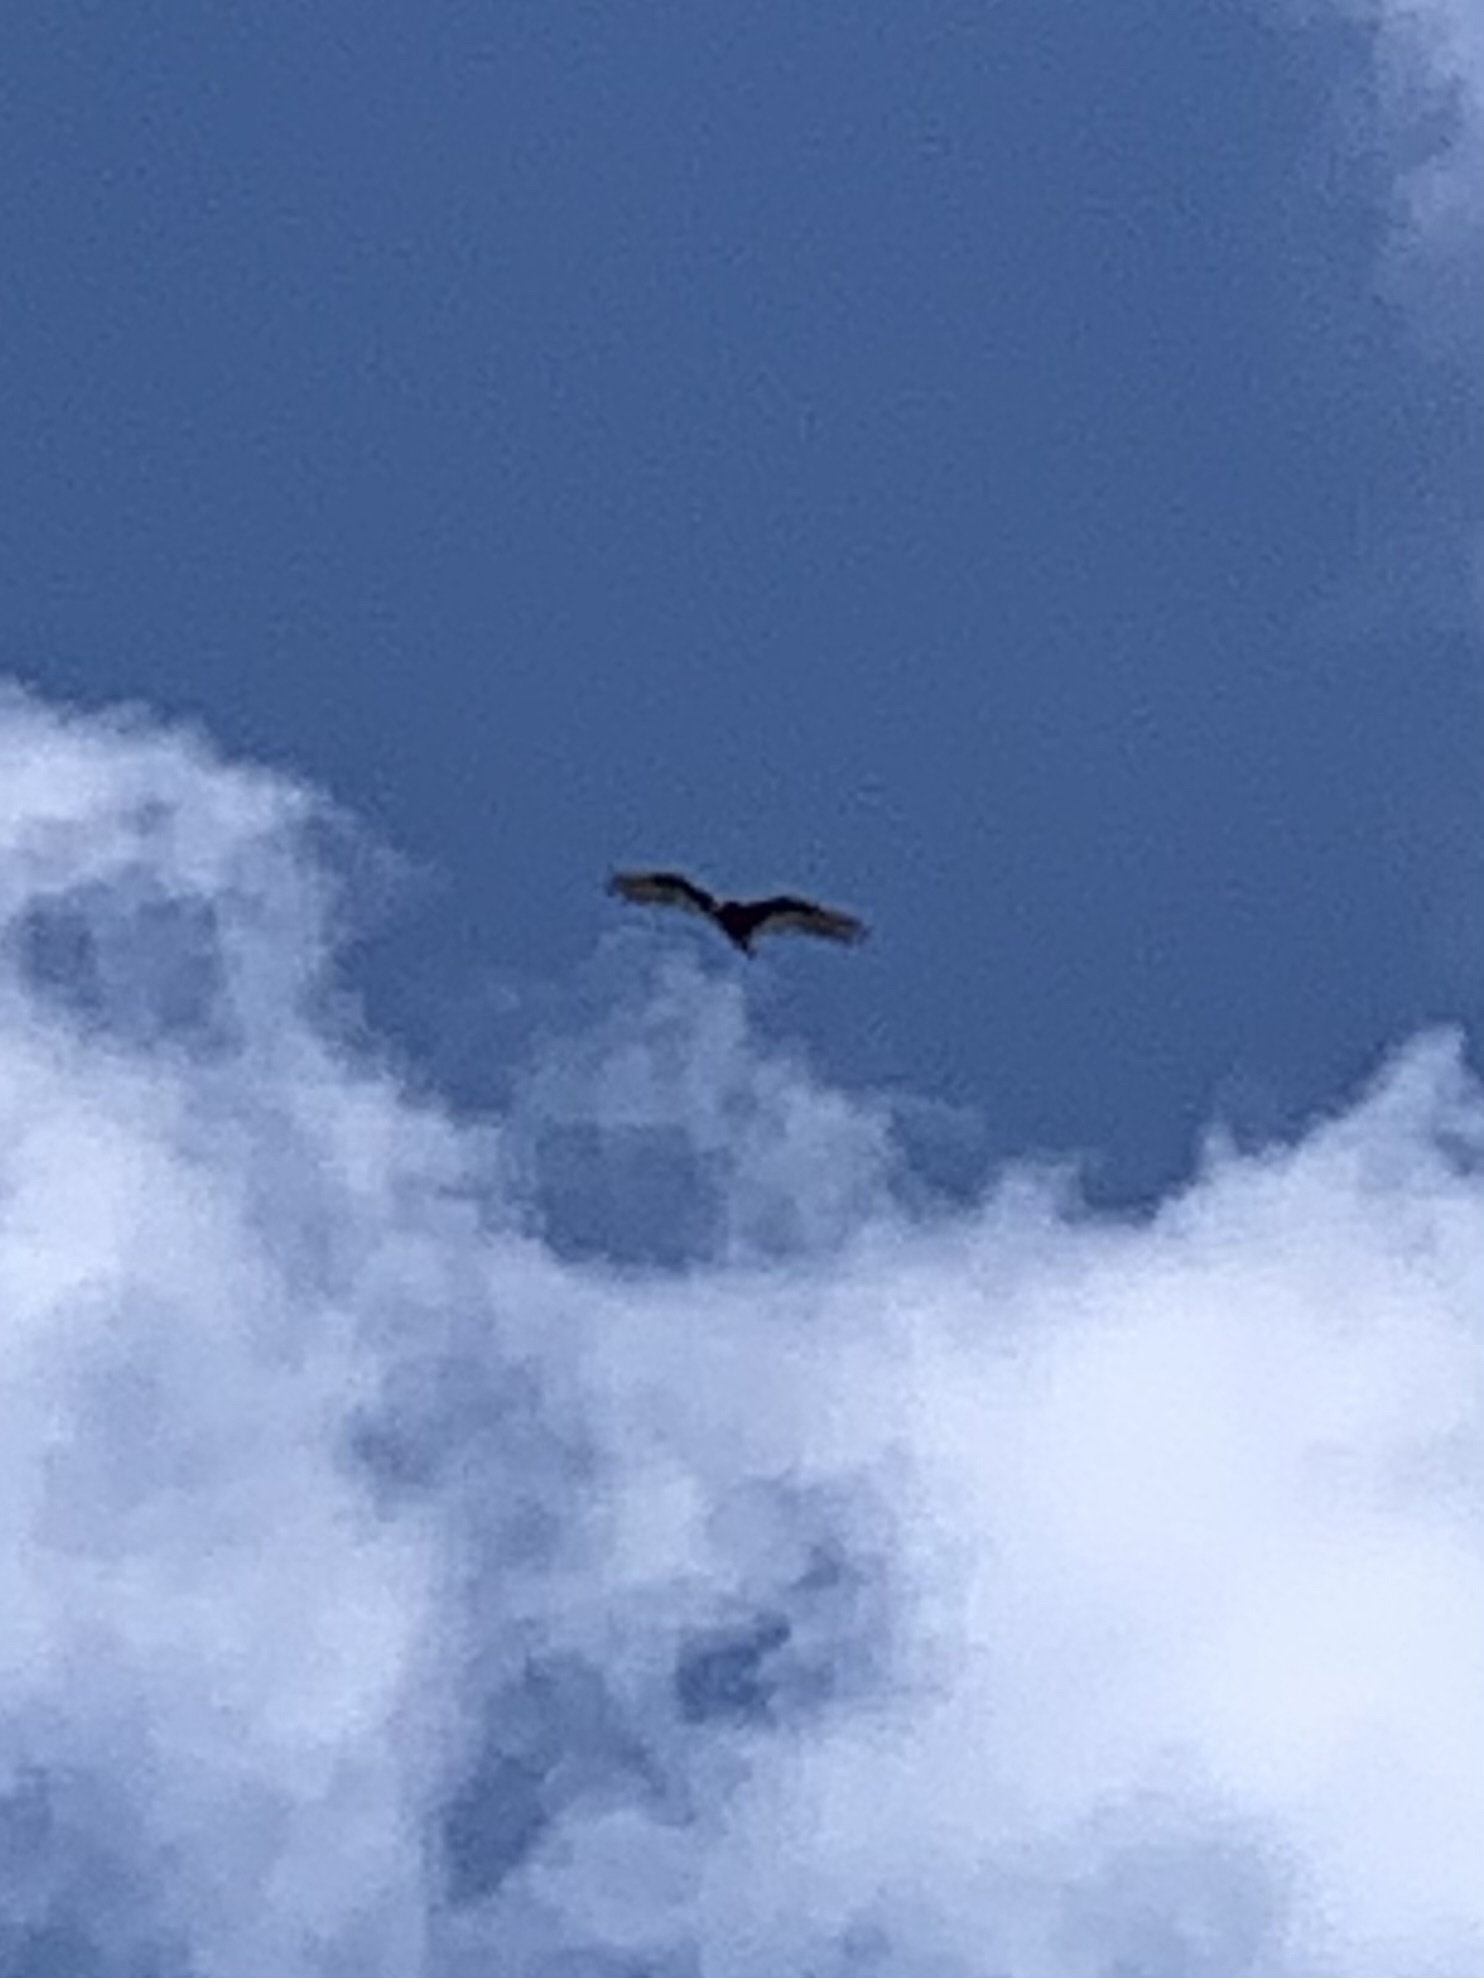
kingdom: Animalia
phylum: Chordata
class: Aves
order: Accipitriformes
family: Cathartidae
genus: Cathartes
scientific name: Cathartes aura
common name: Turkey vulture
